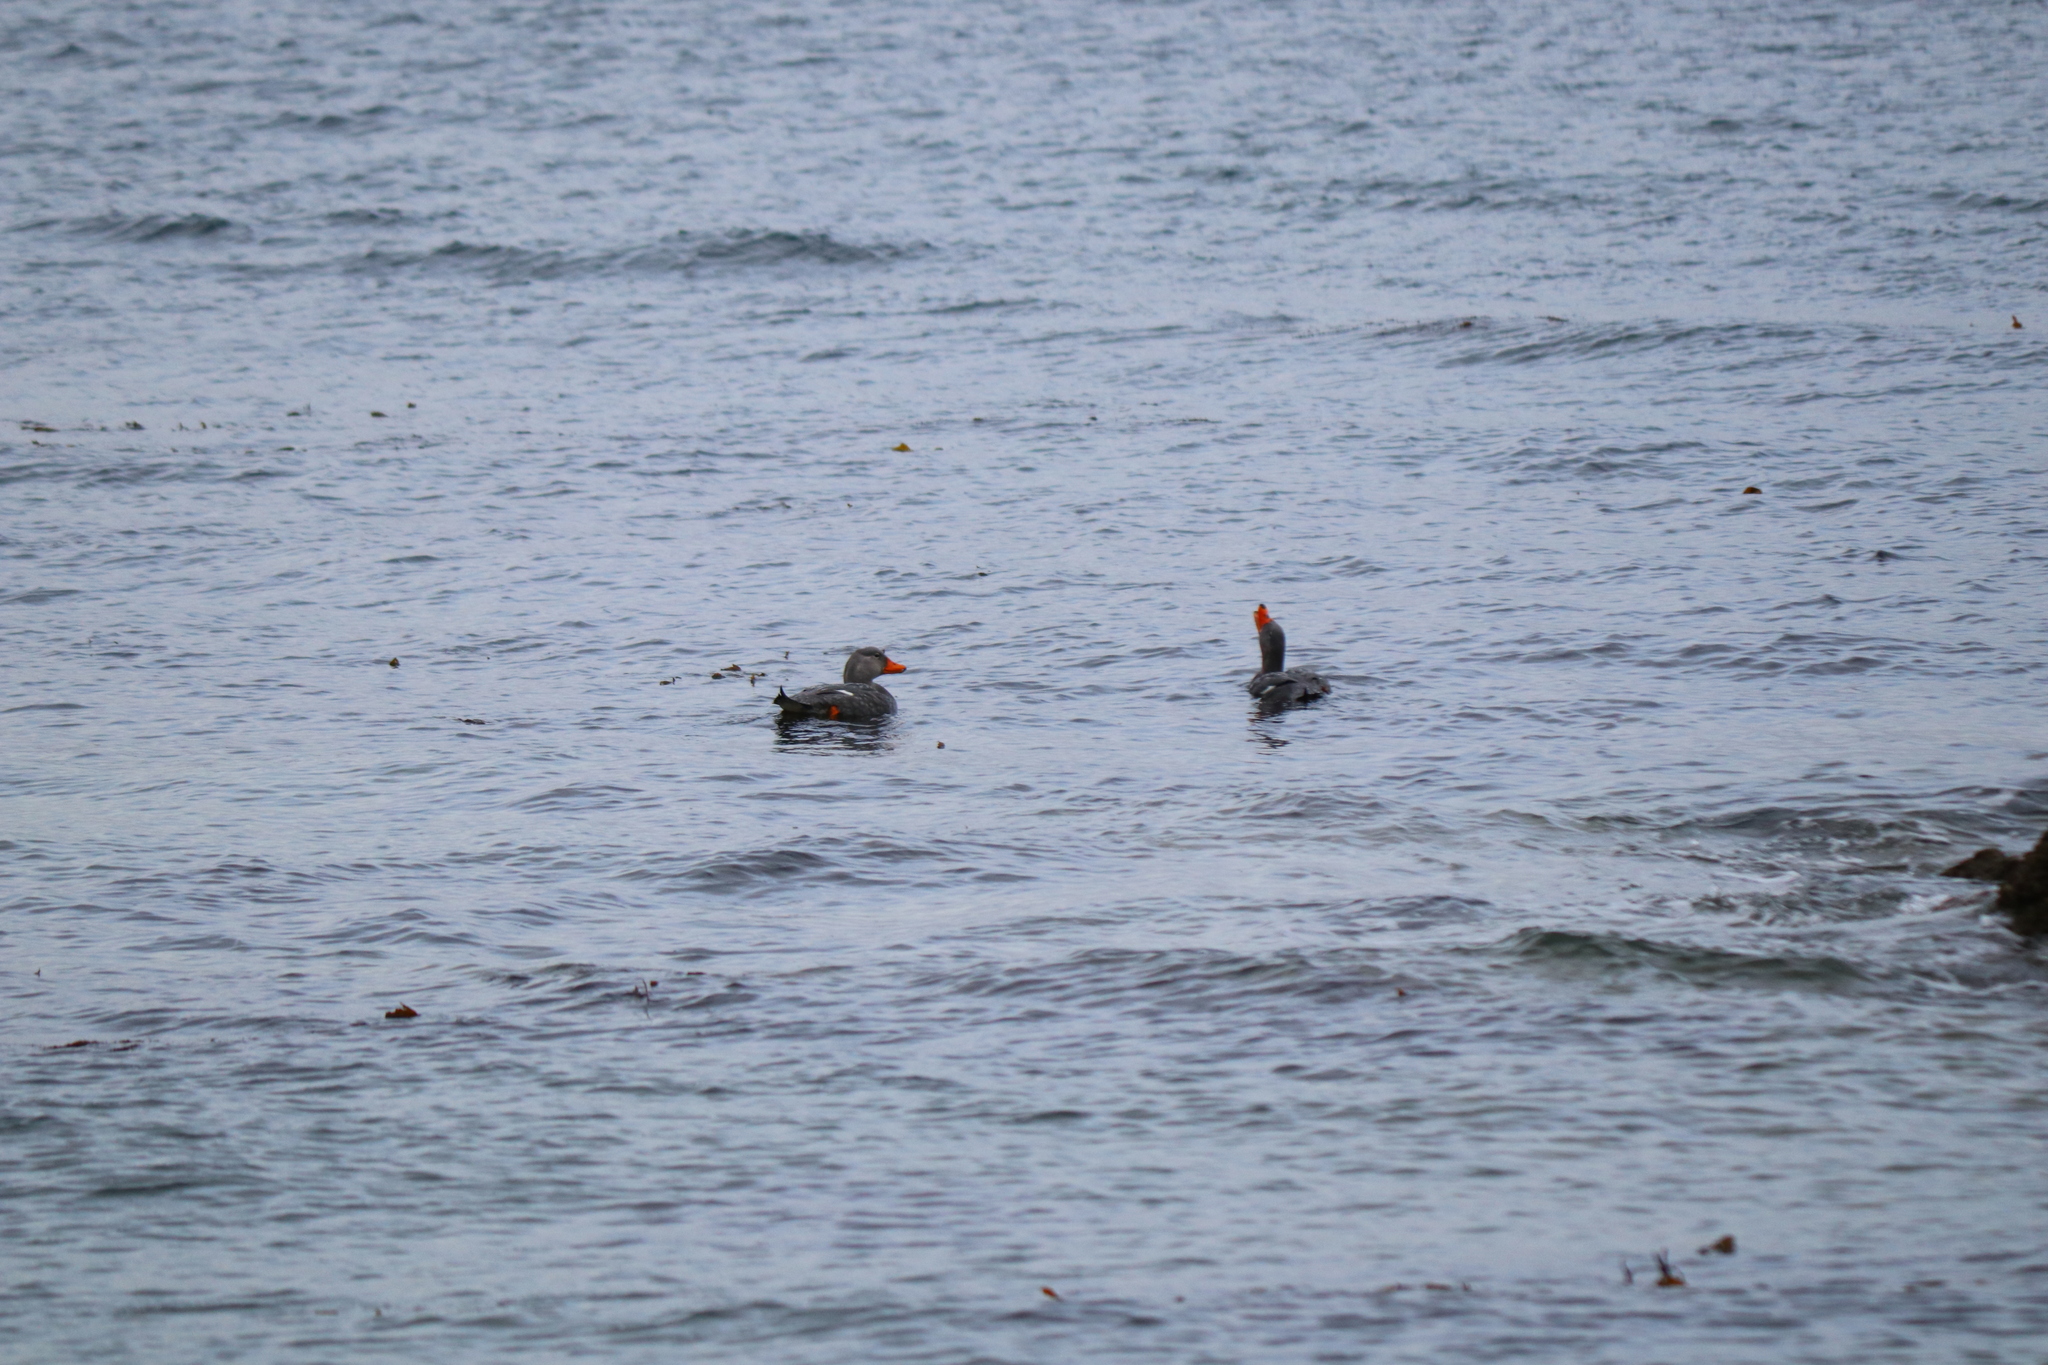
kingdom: Animalia
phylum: Chordata
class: Aves
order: Anseriformes
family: Anatidae
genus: Tachyeres
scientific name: Tachyeres pteneres
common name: Fuegian steamer duck
